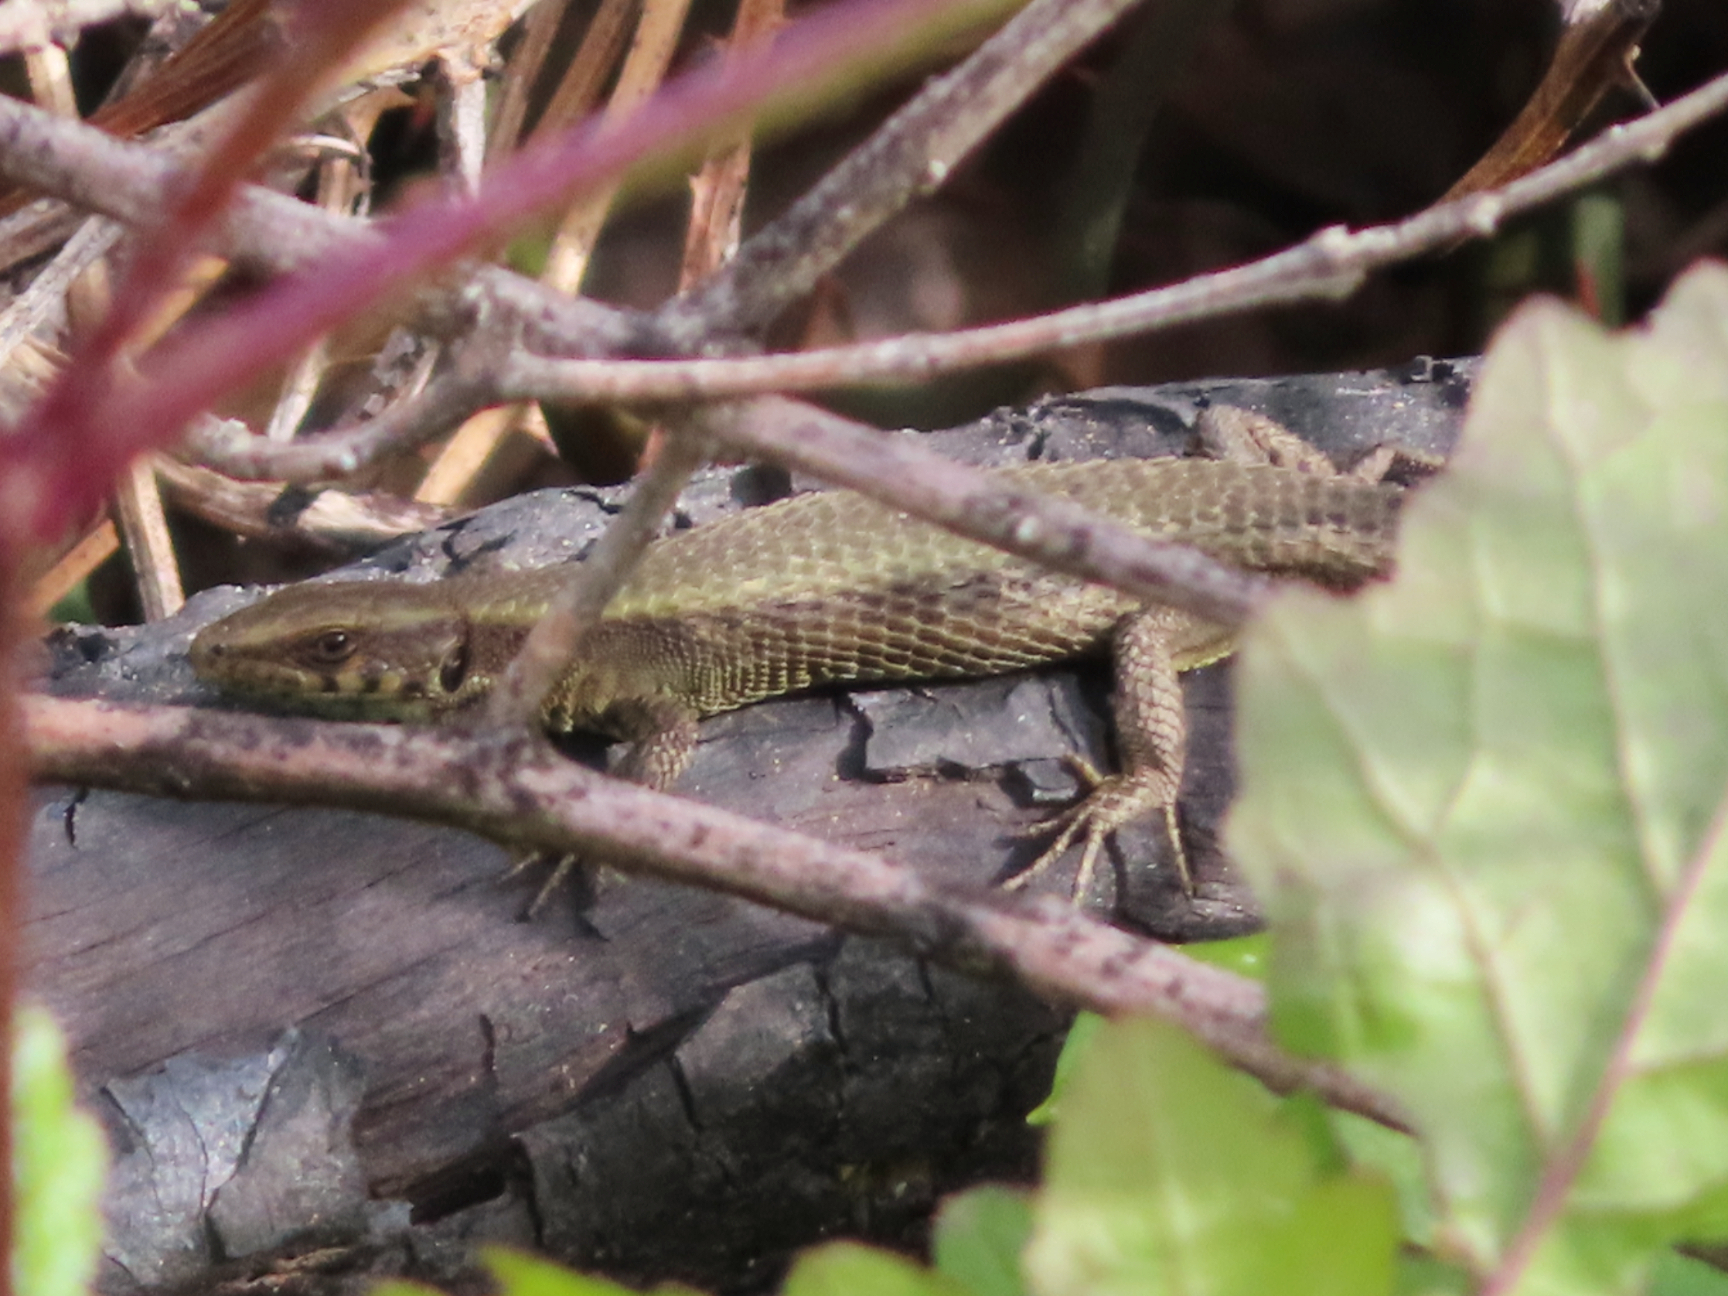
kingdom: Animalia
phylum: Chordata
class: Squamata
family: Lacertidae
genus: Algyroides
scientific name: Algyroides moreoticus
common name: Greek algyroides
